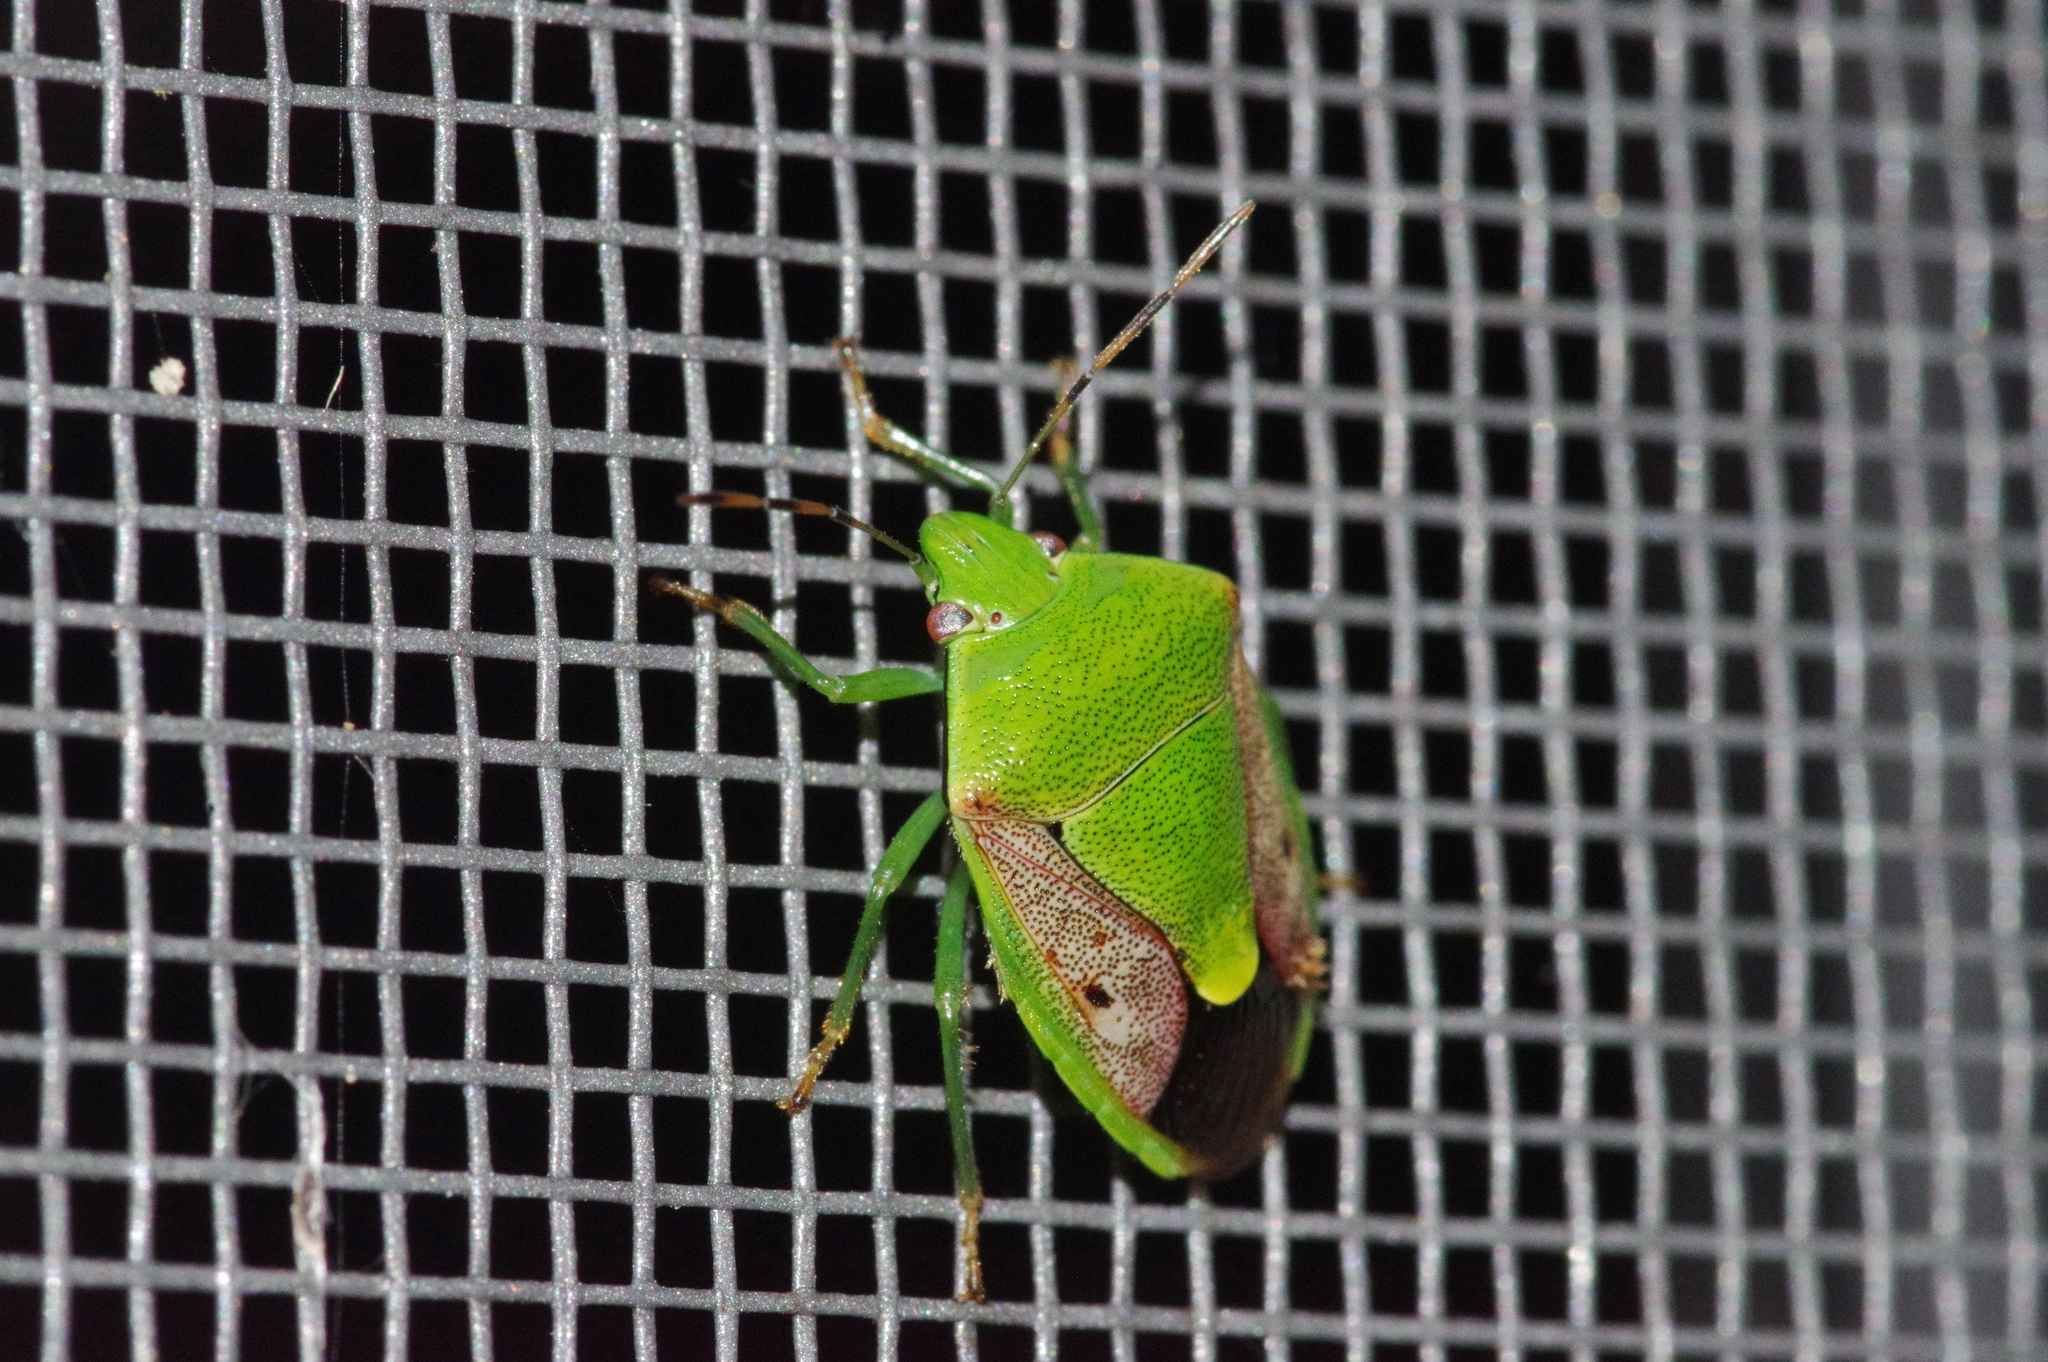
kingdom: Animalia
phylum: Arthropoda
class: Insecta
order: Hemiptera
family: Pentatomidae
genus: Plautia
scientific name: Plautia stali
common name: Stink bug
